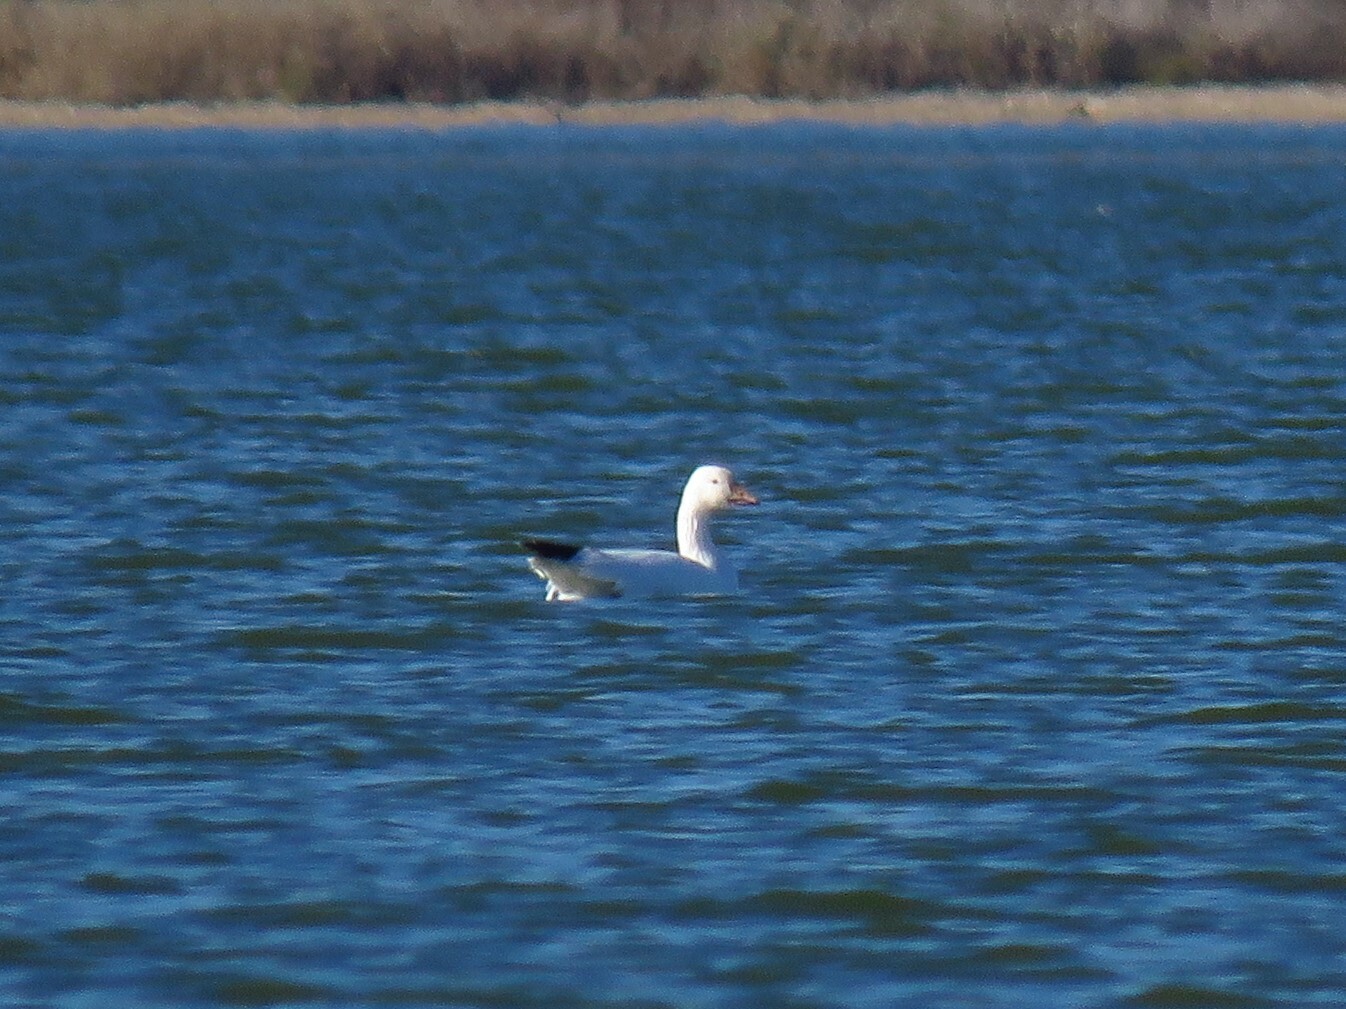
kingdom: Animalia
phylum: Chordata
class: Aves
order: Anseriformes
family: Anatidae
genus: Anser
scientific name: Anser caerulescens
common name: Snow goose
